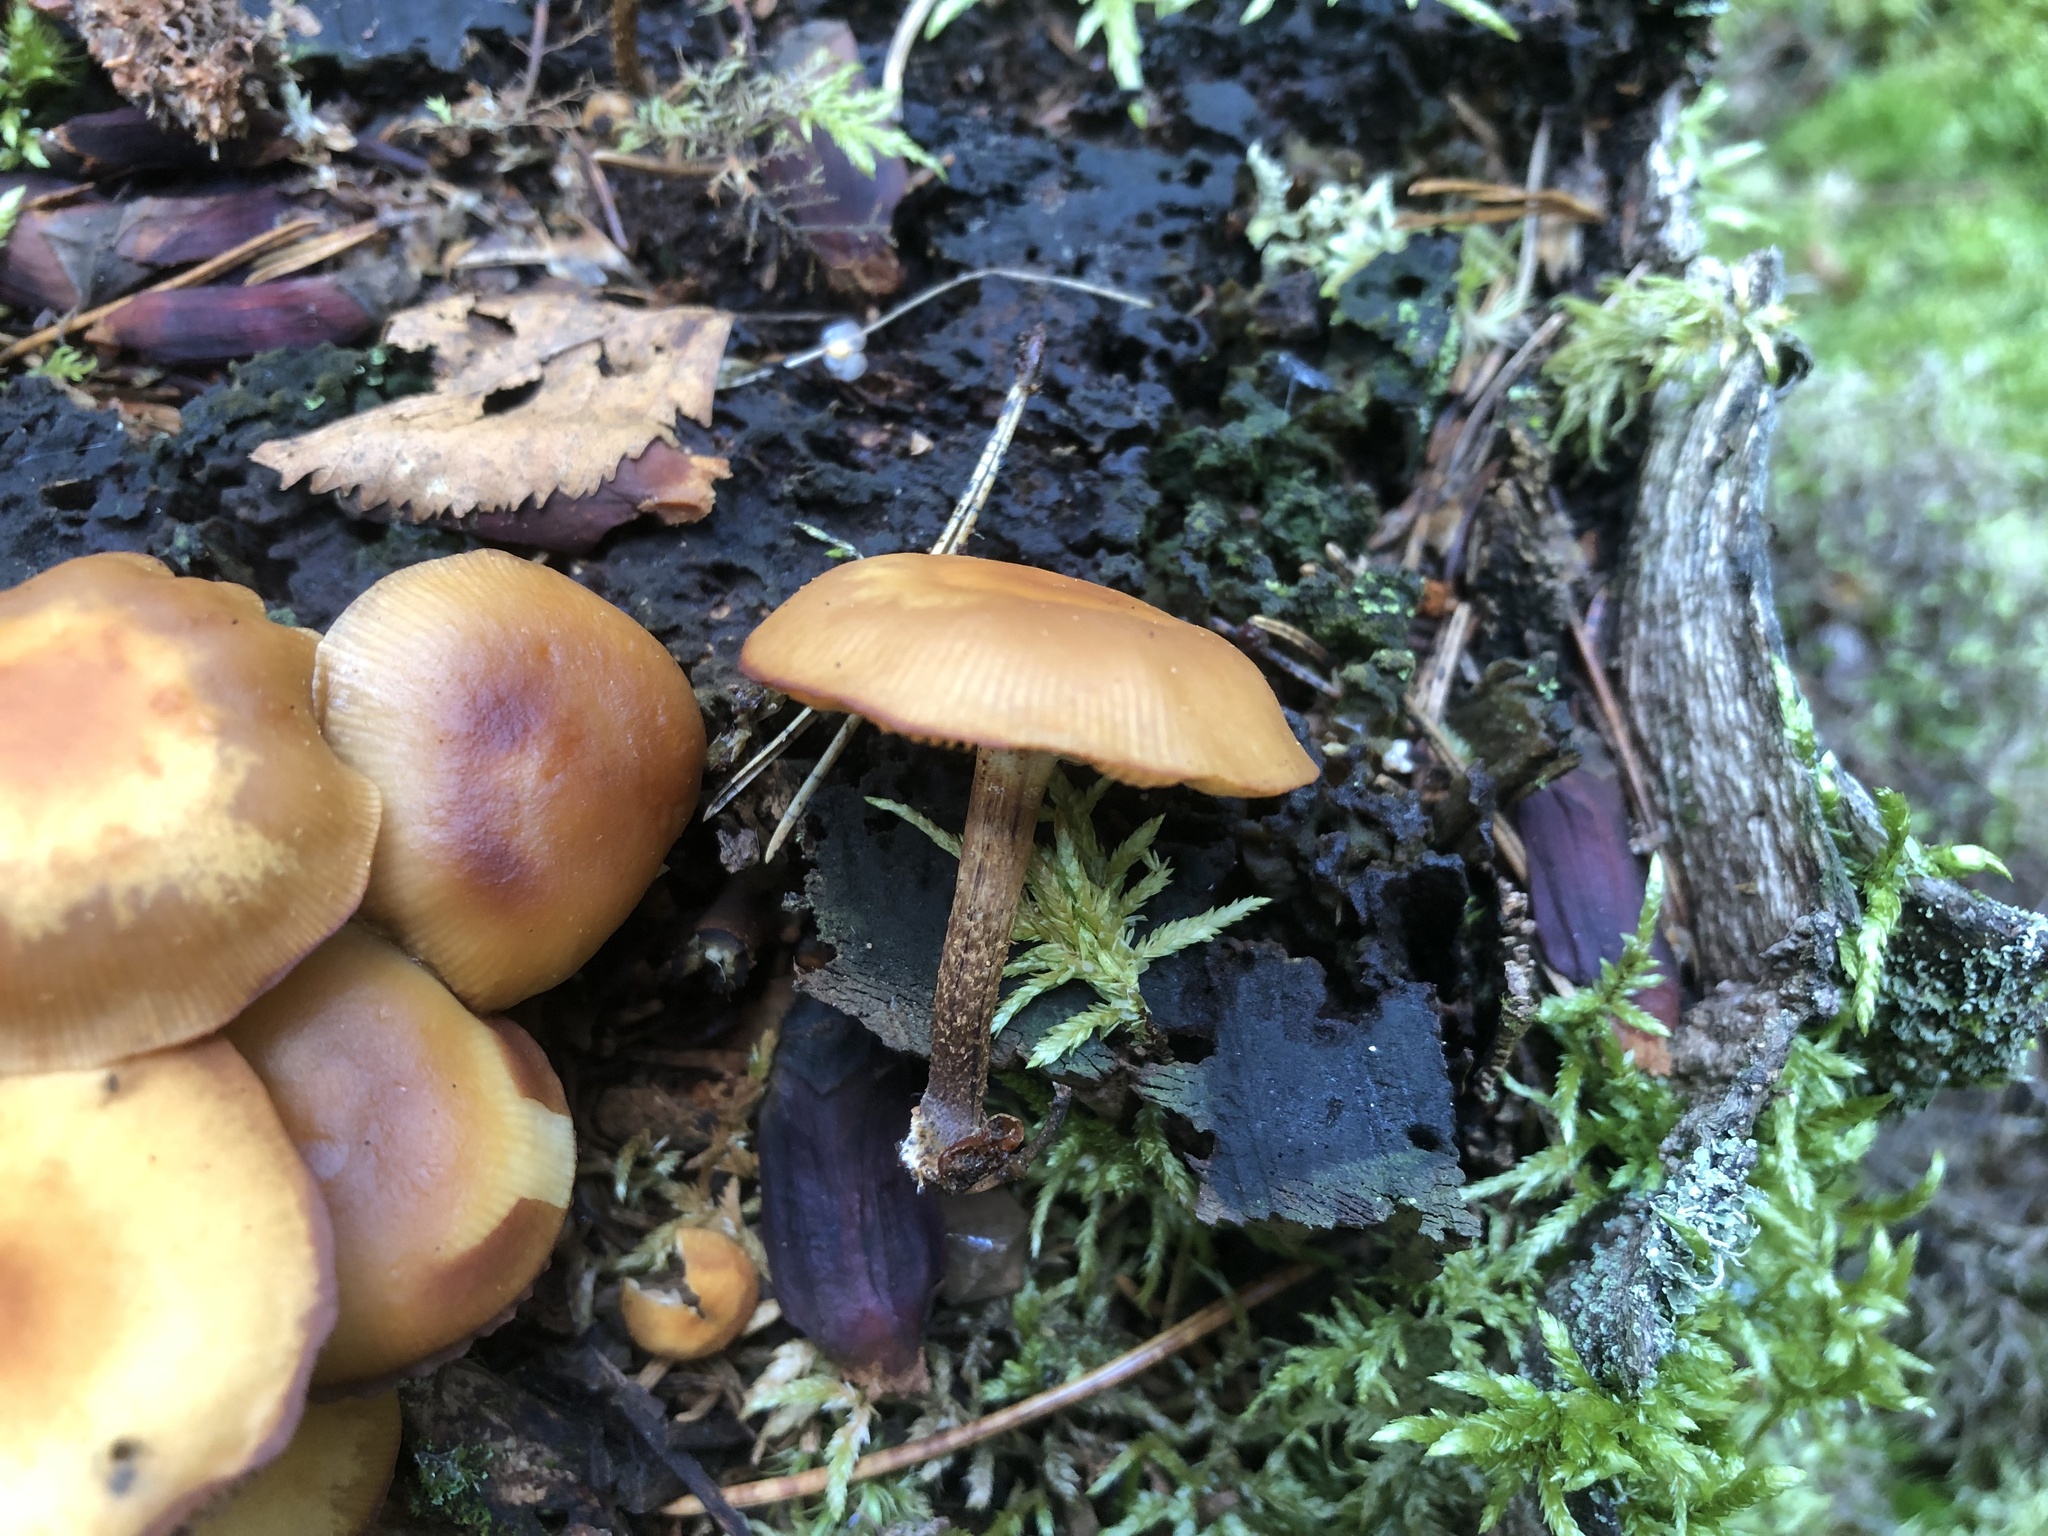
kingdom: Fungi
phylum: Basidiomycota
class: Agaricomycetes
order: Agaricales
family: Strophariaceae
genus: Kuehneromyces
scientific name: Kuehneromyces mutabilis
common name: Sheathed woodtuft
